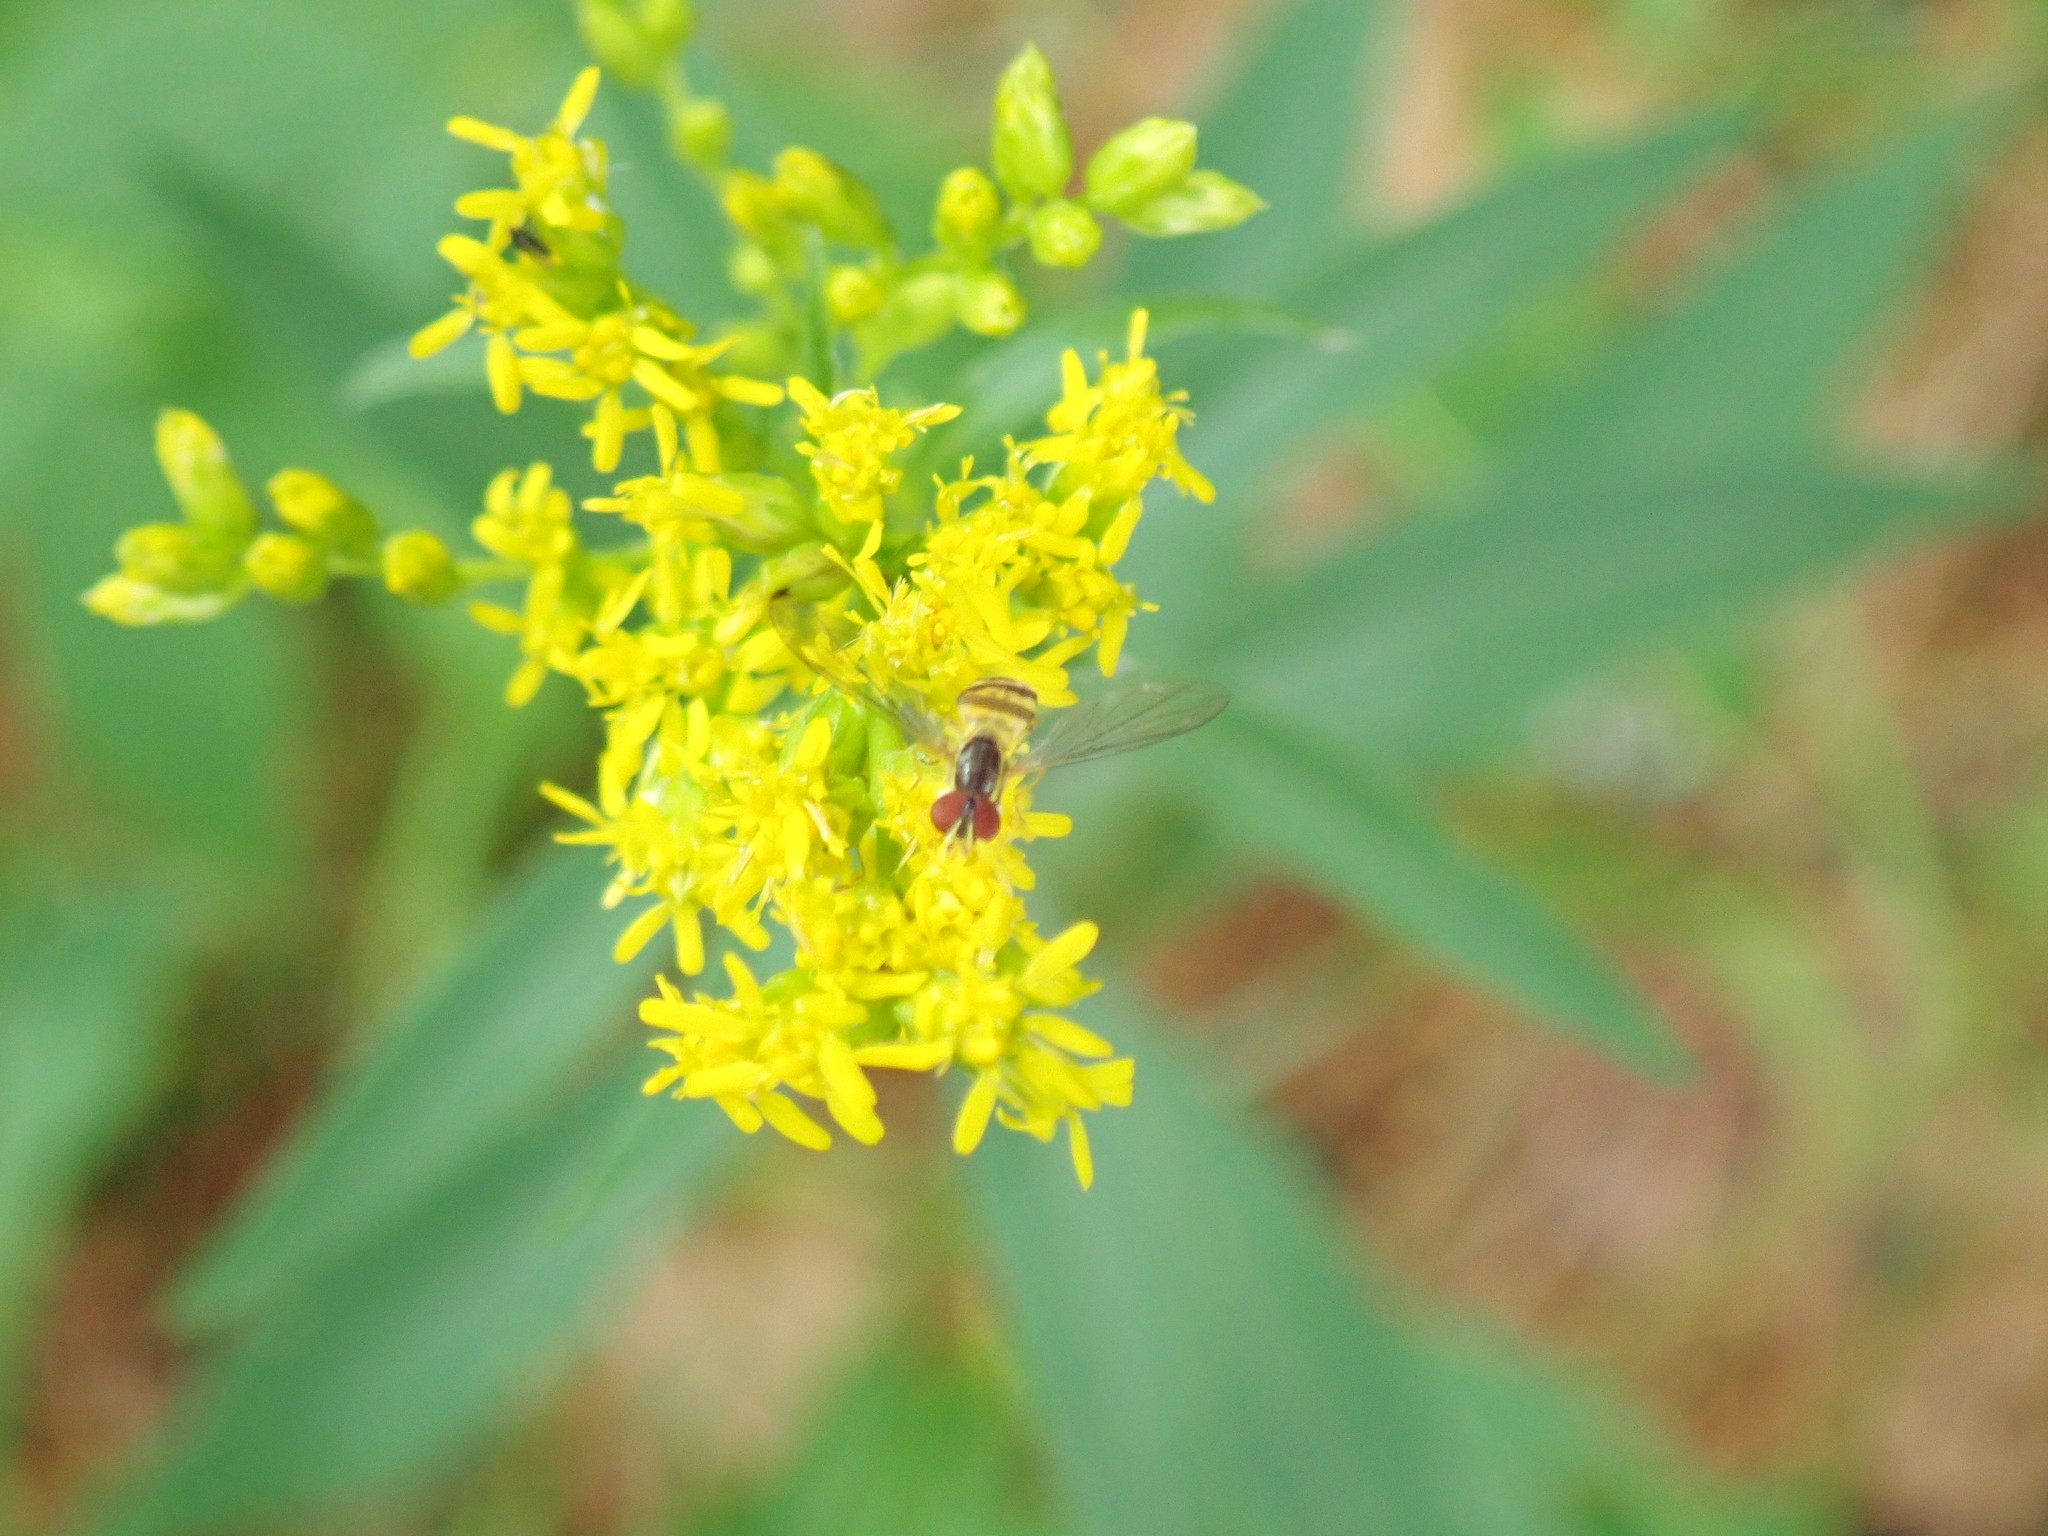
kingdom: Animalia
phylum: Arthropoda
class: Insecta
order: Diptera
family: Syrphidae
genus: Toxomerus
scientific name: Toxomerus geminatus
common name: Eastern calligrapher
